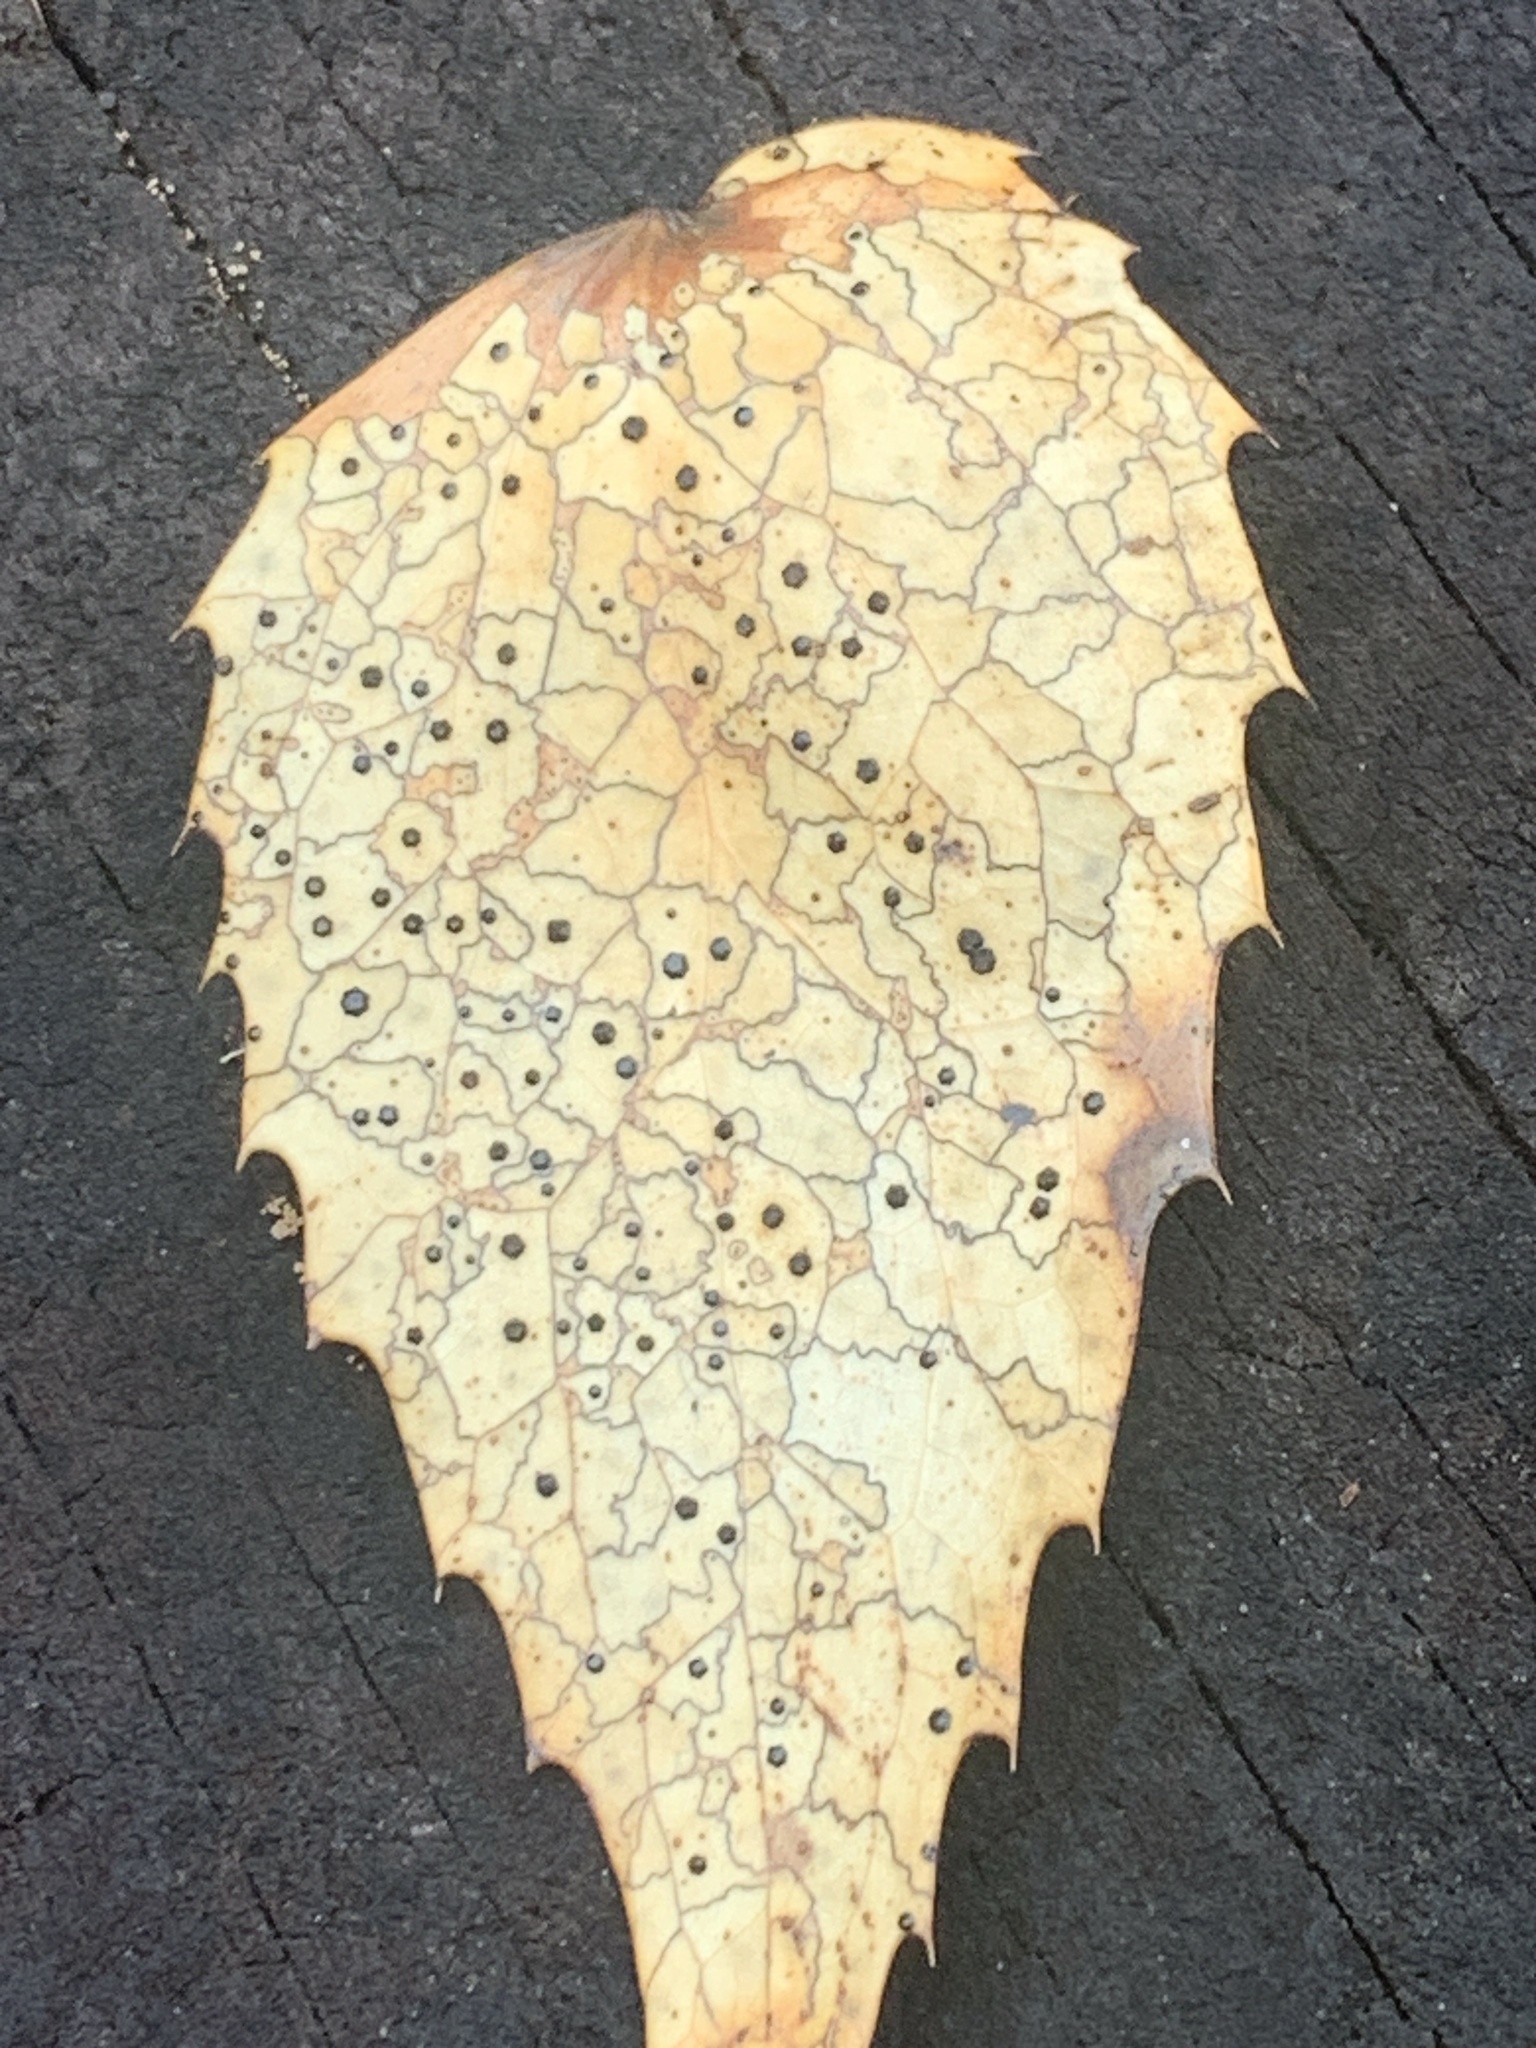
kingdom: Fungi
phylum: Ascomycota
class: Leotiomycetes
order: Rhytismatales
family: Rhytismataceae
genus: Coccomyces
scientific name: Coccomyces dentatus
